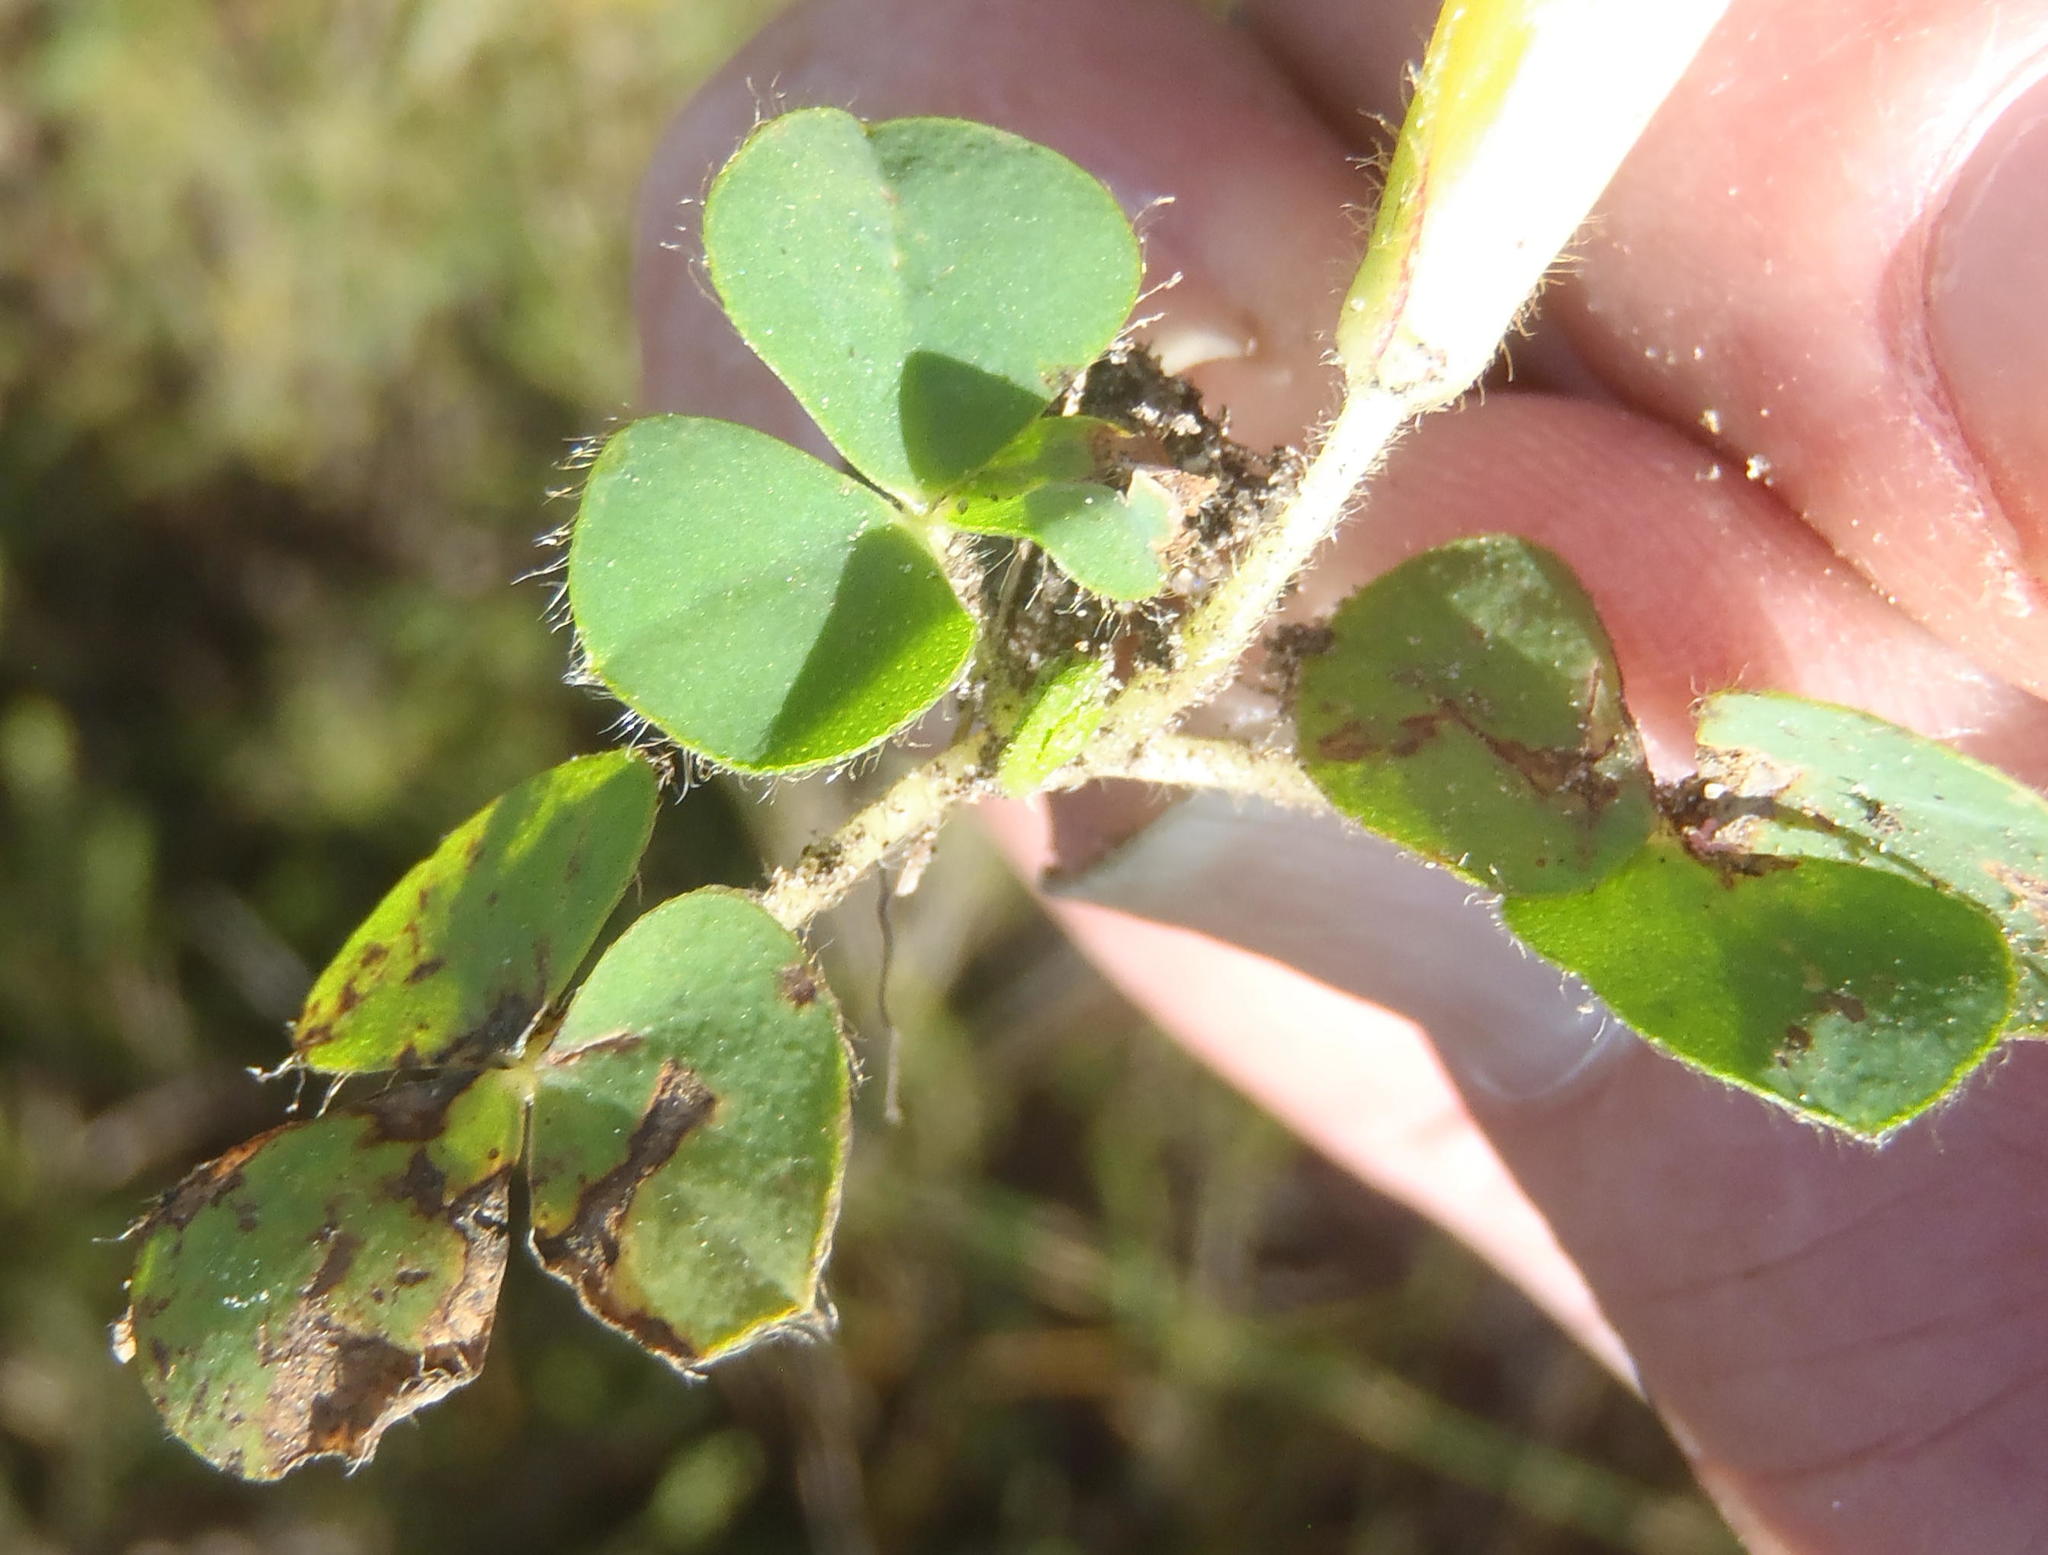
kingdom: Plantae
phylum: Tracheophyta
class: Magnoliopsida
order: Oxalidales
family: Oxalidaceae
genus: Oxalis
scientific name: Oxalis purpurea
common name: Purple woodsorrel
